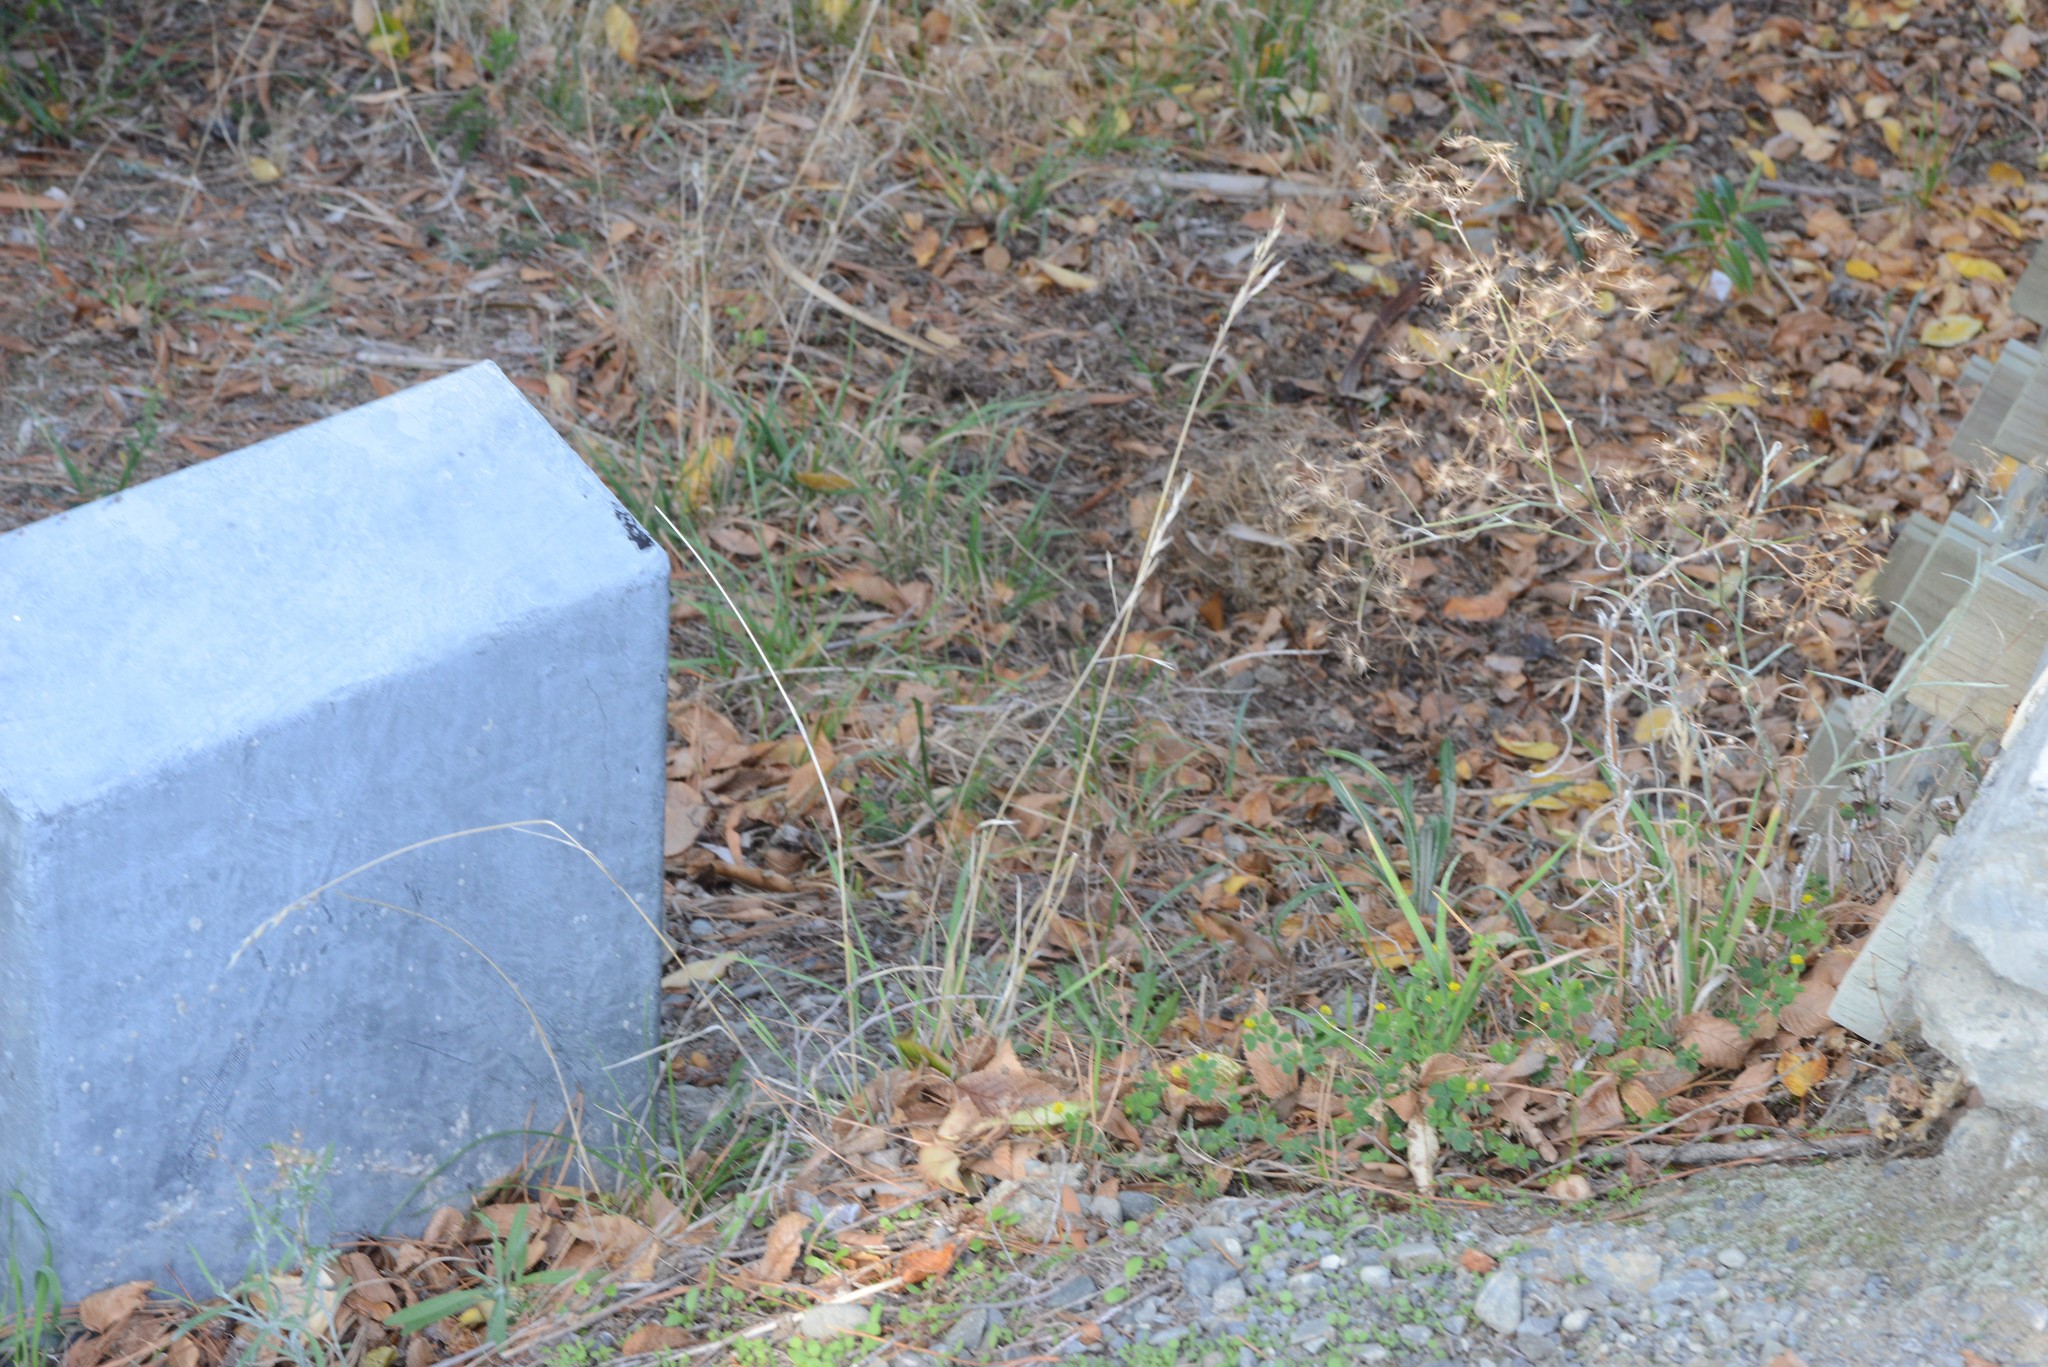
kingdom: Plantae
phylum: Tracheophyta
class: Magnoliopsida
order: Asterales
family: Asteraceae
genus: Senecio
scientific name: Senecio quadridentatus
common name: Cotton fireweed
